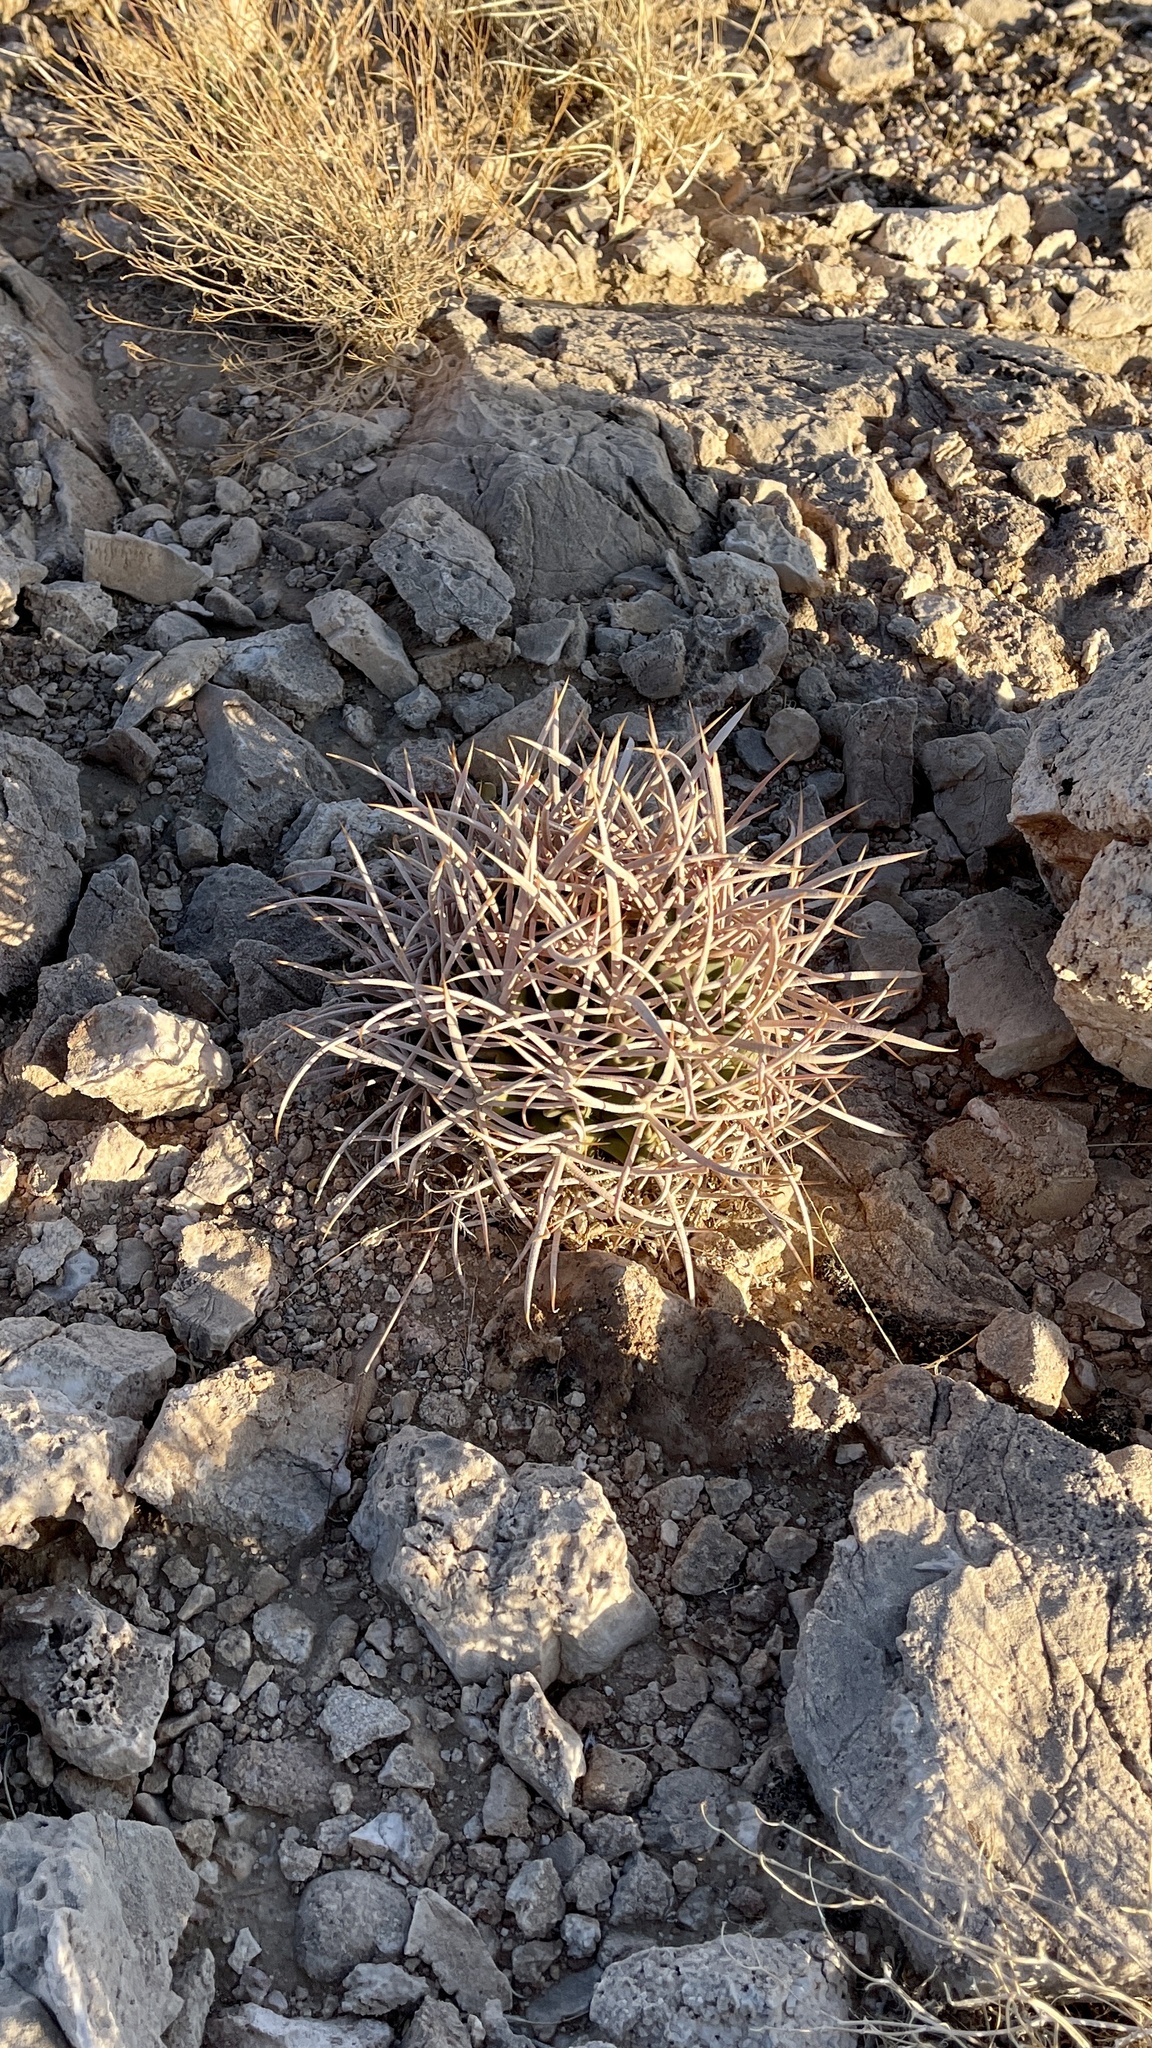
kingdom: Plantae
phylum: Tracheophyta
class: Magnoliopsida
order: Caryophyllales
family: Cactaceae
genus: Echinocactus
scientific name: Echinocactus polycephalus
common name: Cottontop cactus
